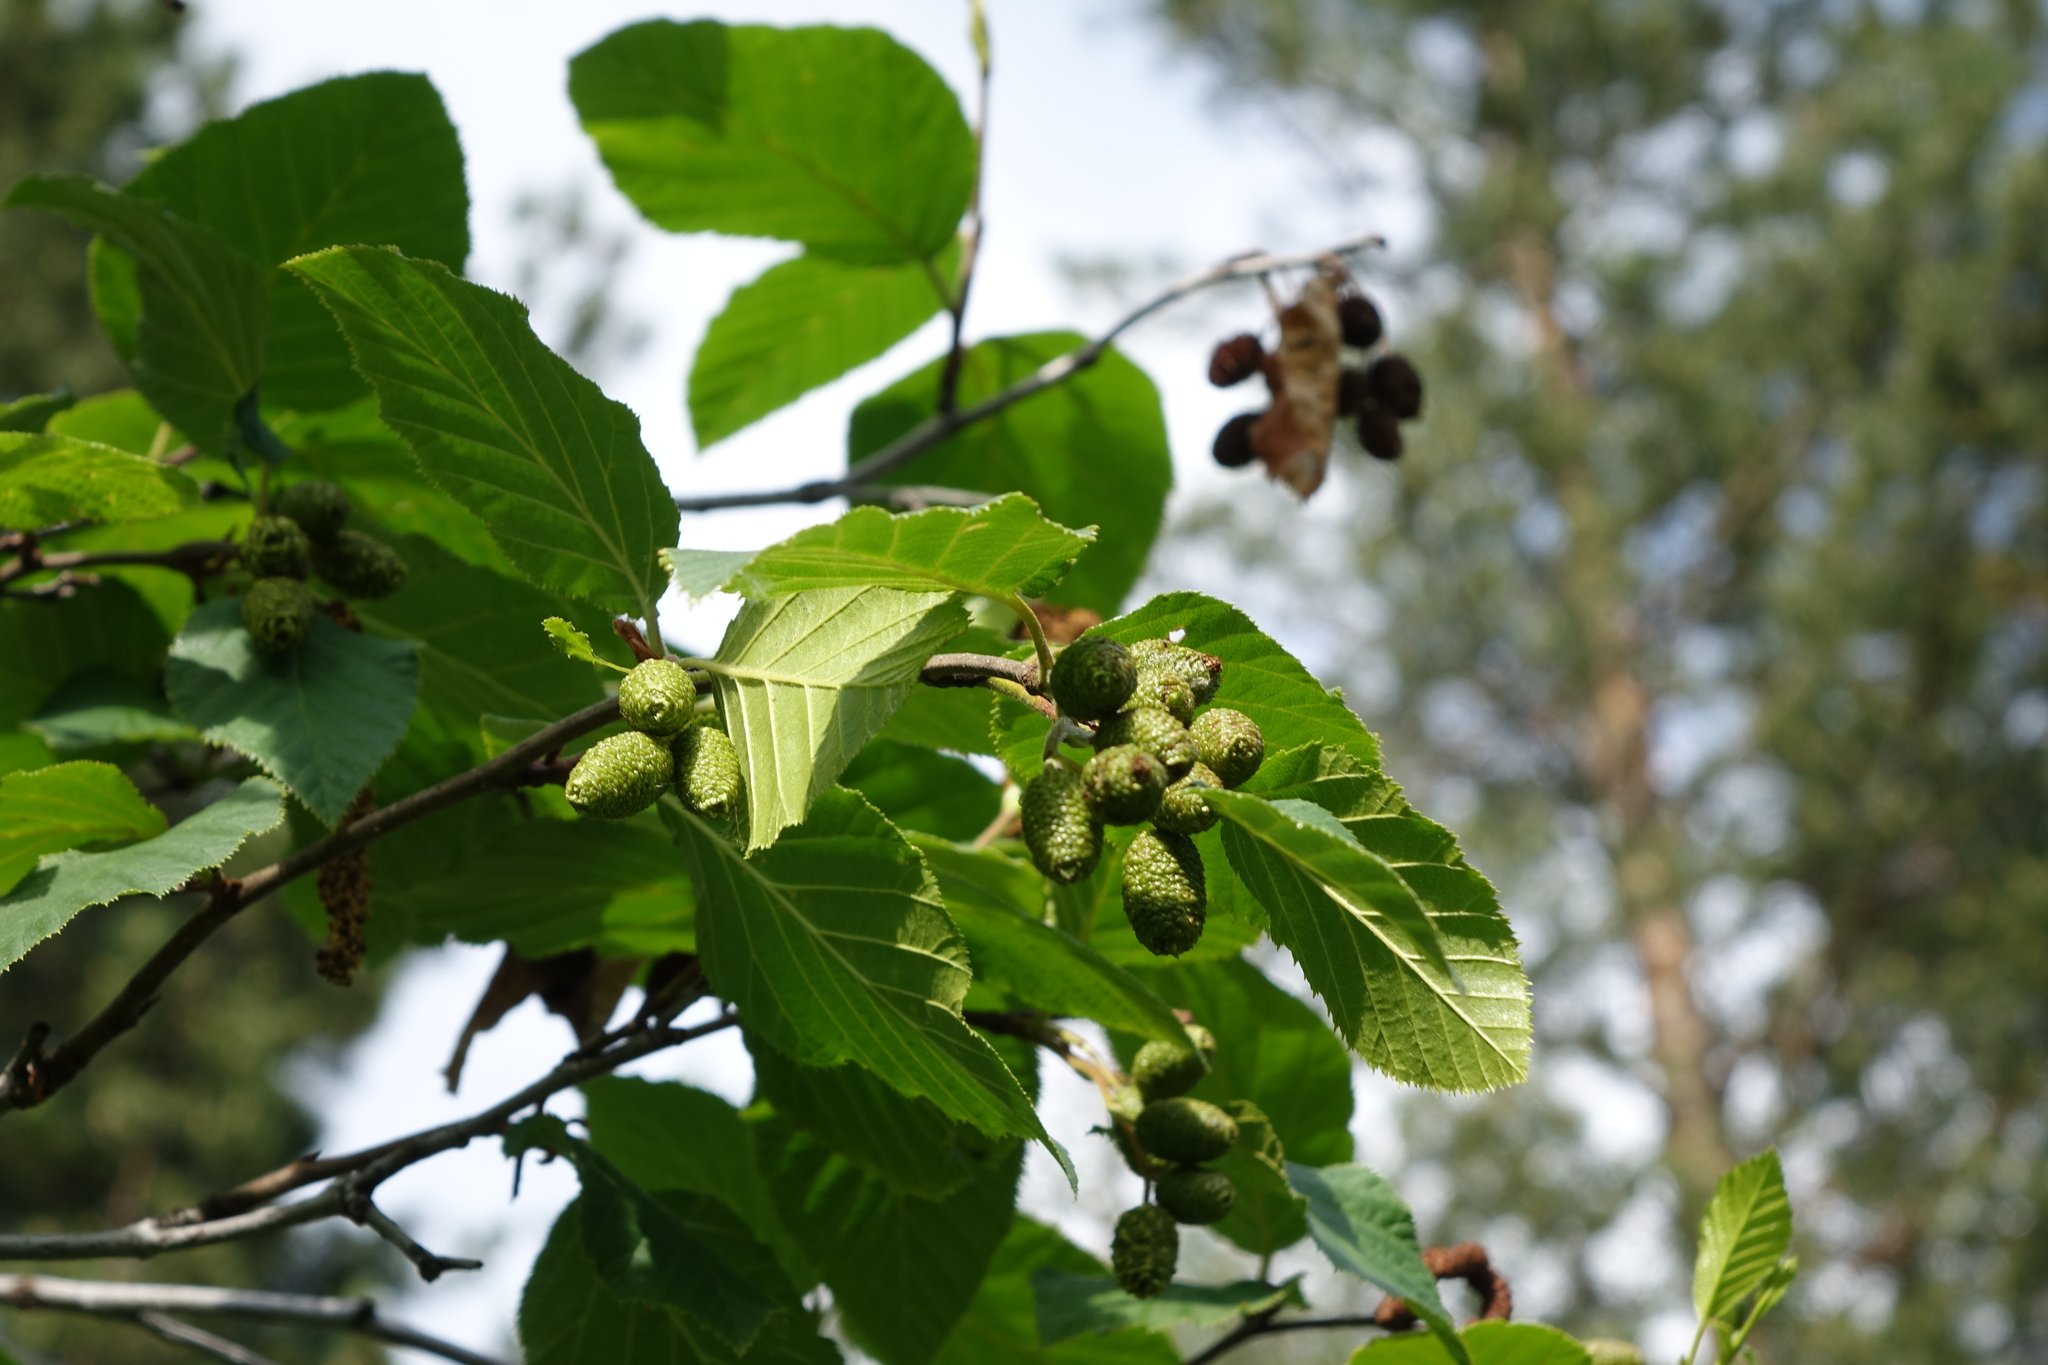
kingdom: Plantae
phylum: Tracheophyta
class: Magnoliopsida
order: Fagales
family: Betulaceae
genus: Alnus
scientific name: Alnus alnobetula
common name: Green alder
